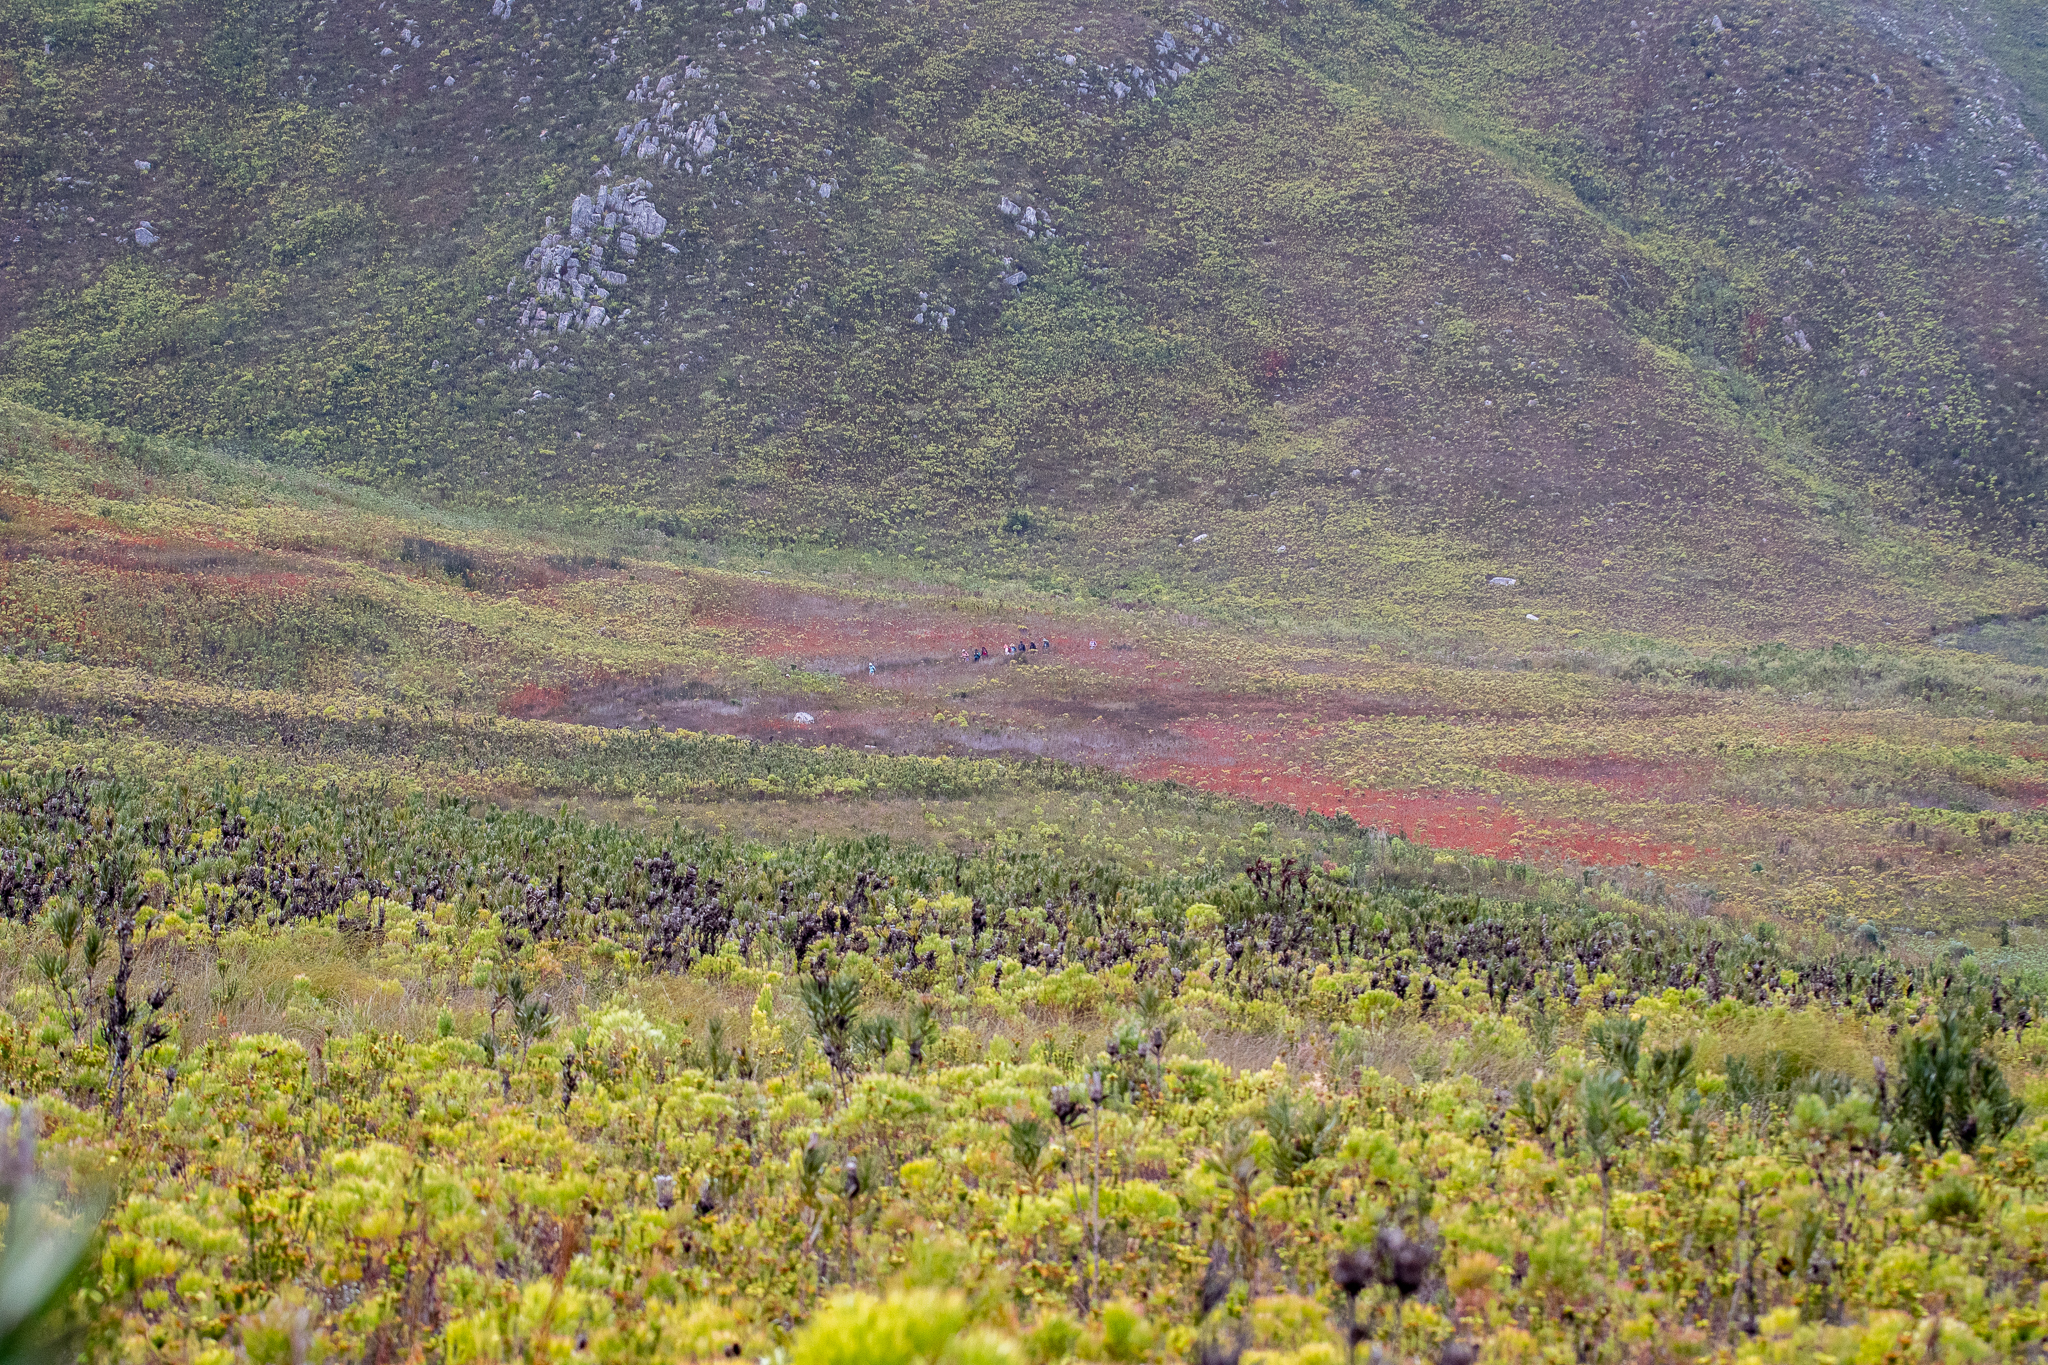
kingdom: Plantae
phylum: Tracheophyta
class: Magnoliopsida
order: Ericales
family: Ericaceae
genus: Erica
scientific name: Erica pillansii
